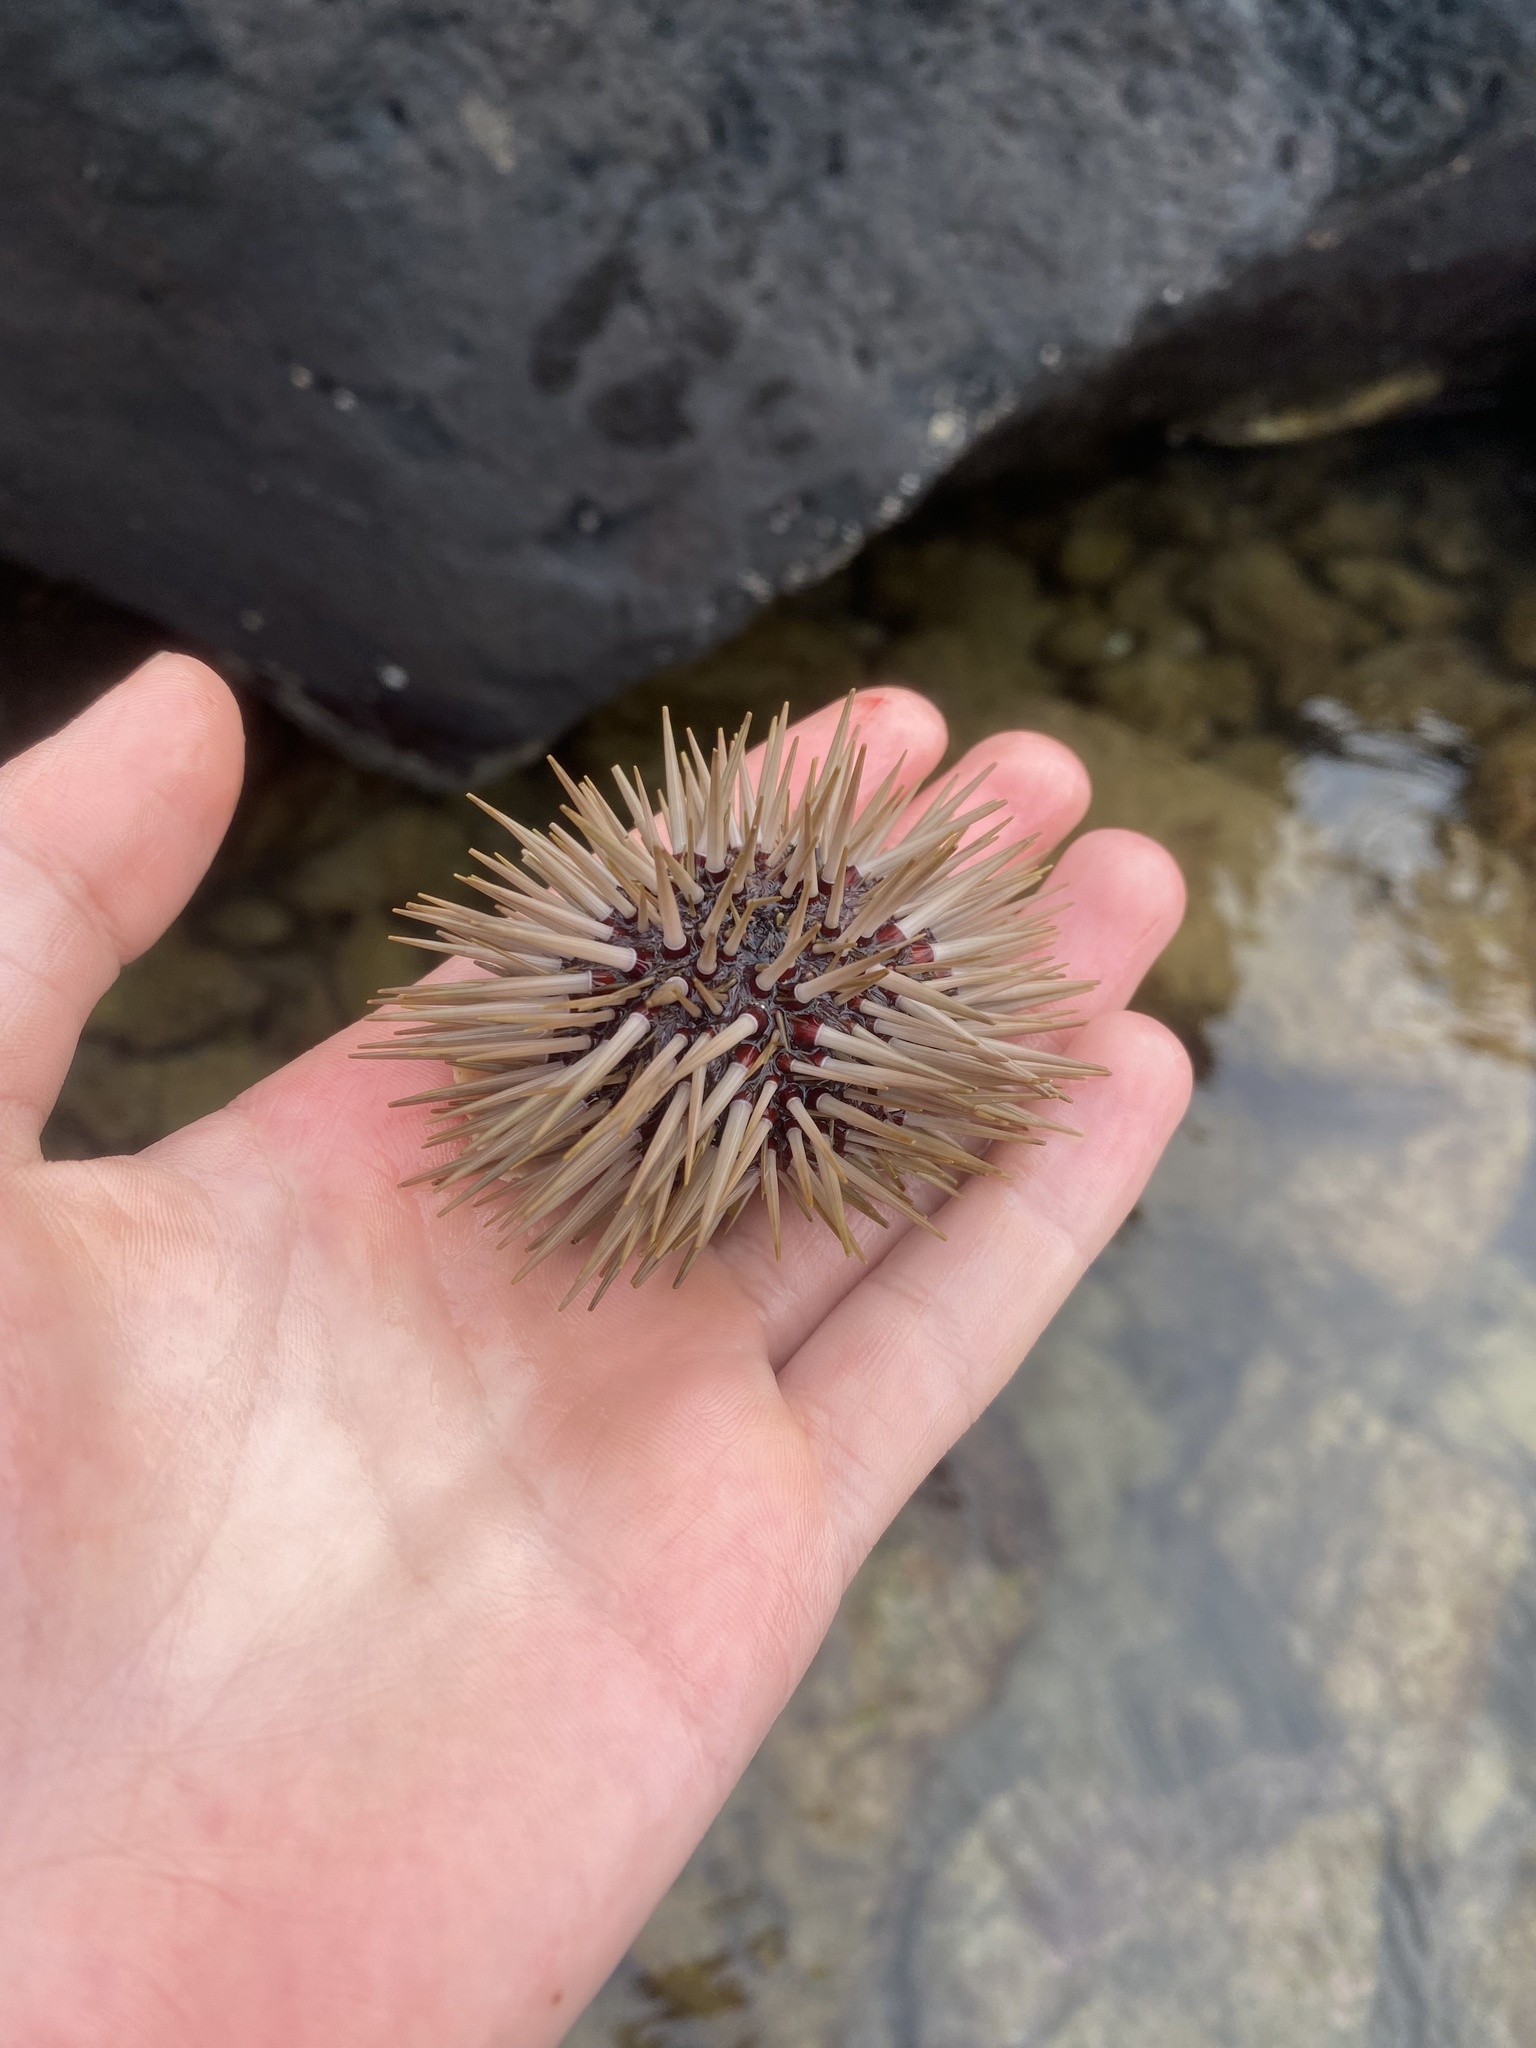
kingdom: Animalia
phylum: Echinodermata
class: Echinoidea
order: Camarodonta
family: Echinometridae
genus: Echinometra
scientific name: Echinometra mathaei
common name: Rock-boring urchin
